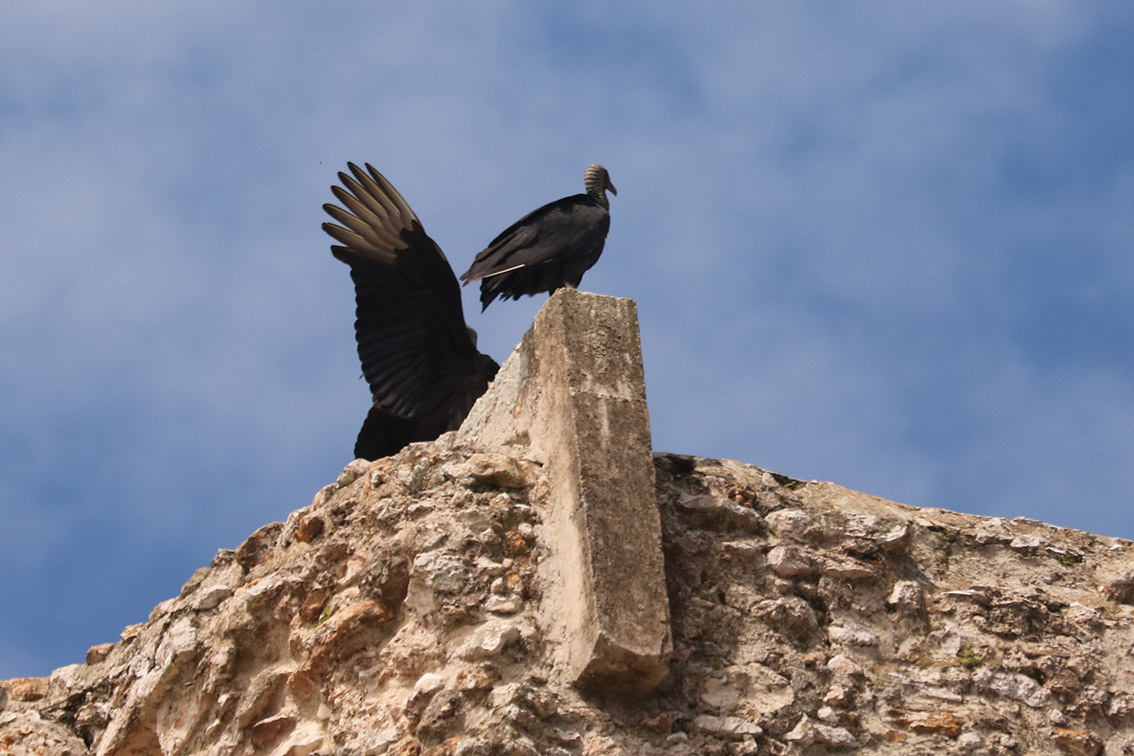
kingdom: Animalia
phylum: Chordata
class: Aves
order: Accipitriformes
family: Cathartidae
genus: Coragyps
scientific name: Coragyps atratus
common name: Black vulture
